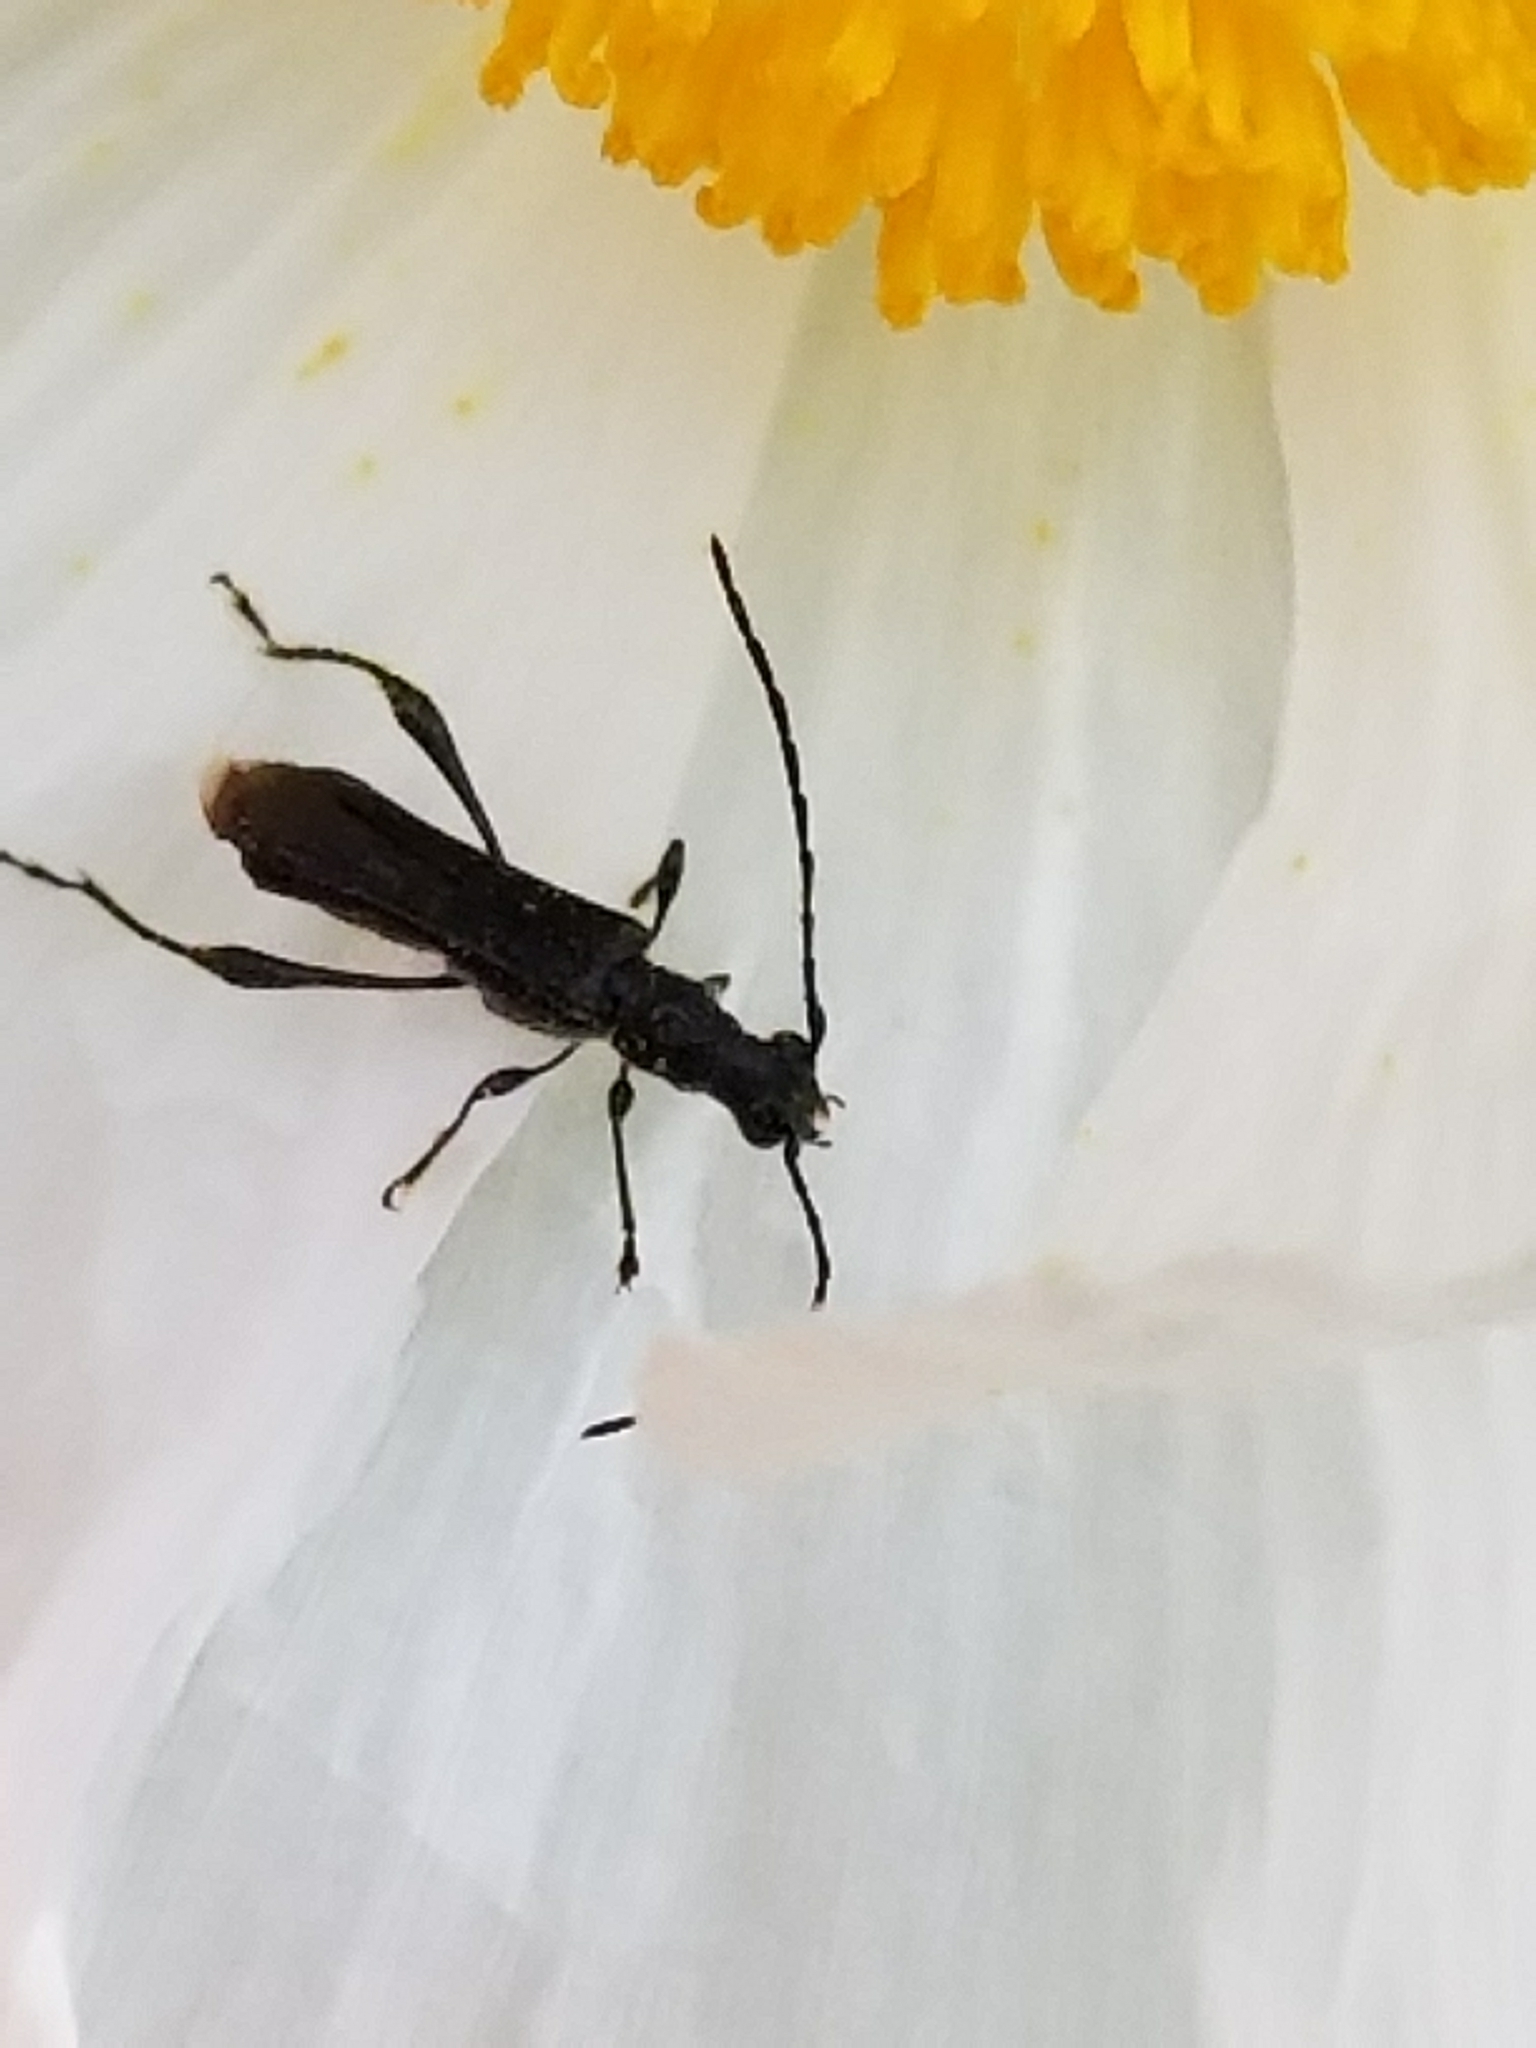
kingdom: Animalia
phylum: Arthropoda
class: Insecta
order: Coleoptera
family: Cerambycidae
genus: Callimoxys
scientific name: Callimoxys nigrinus
